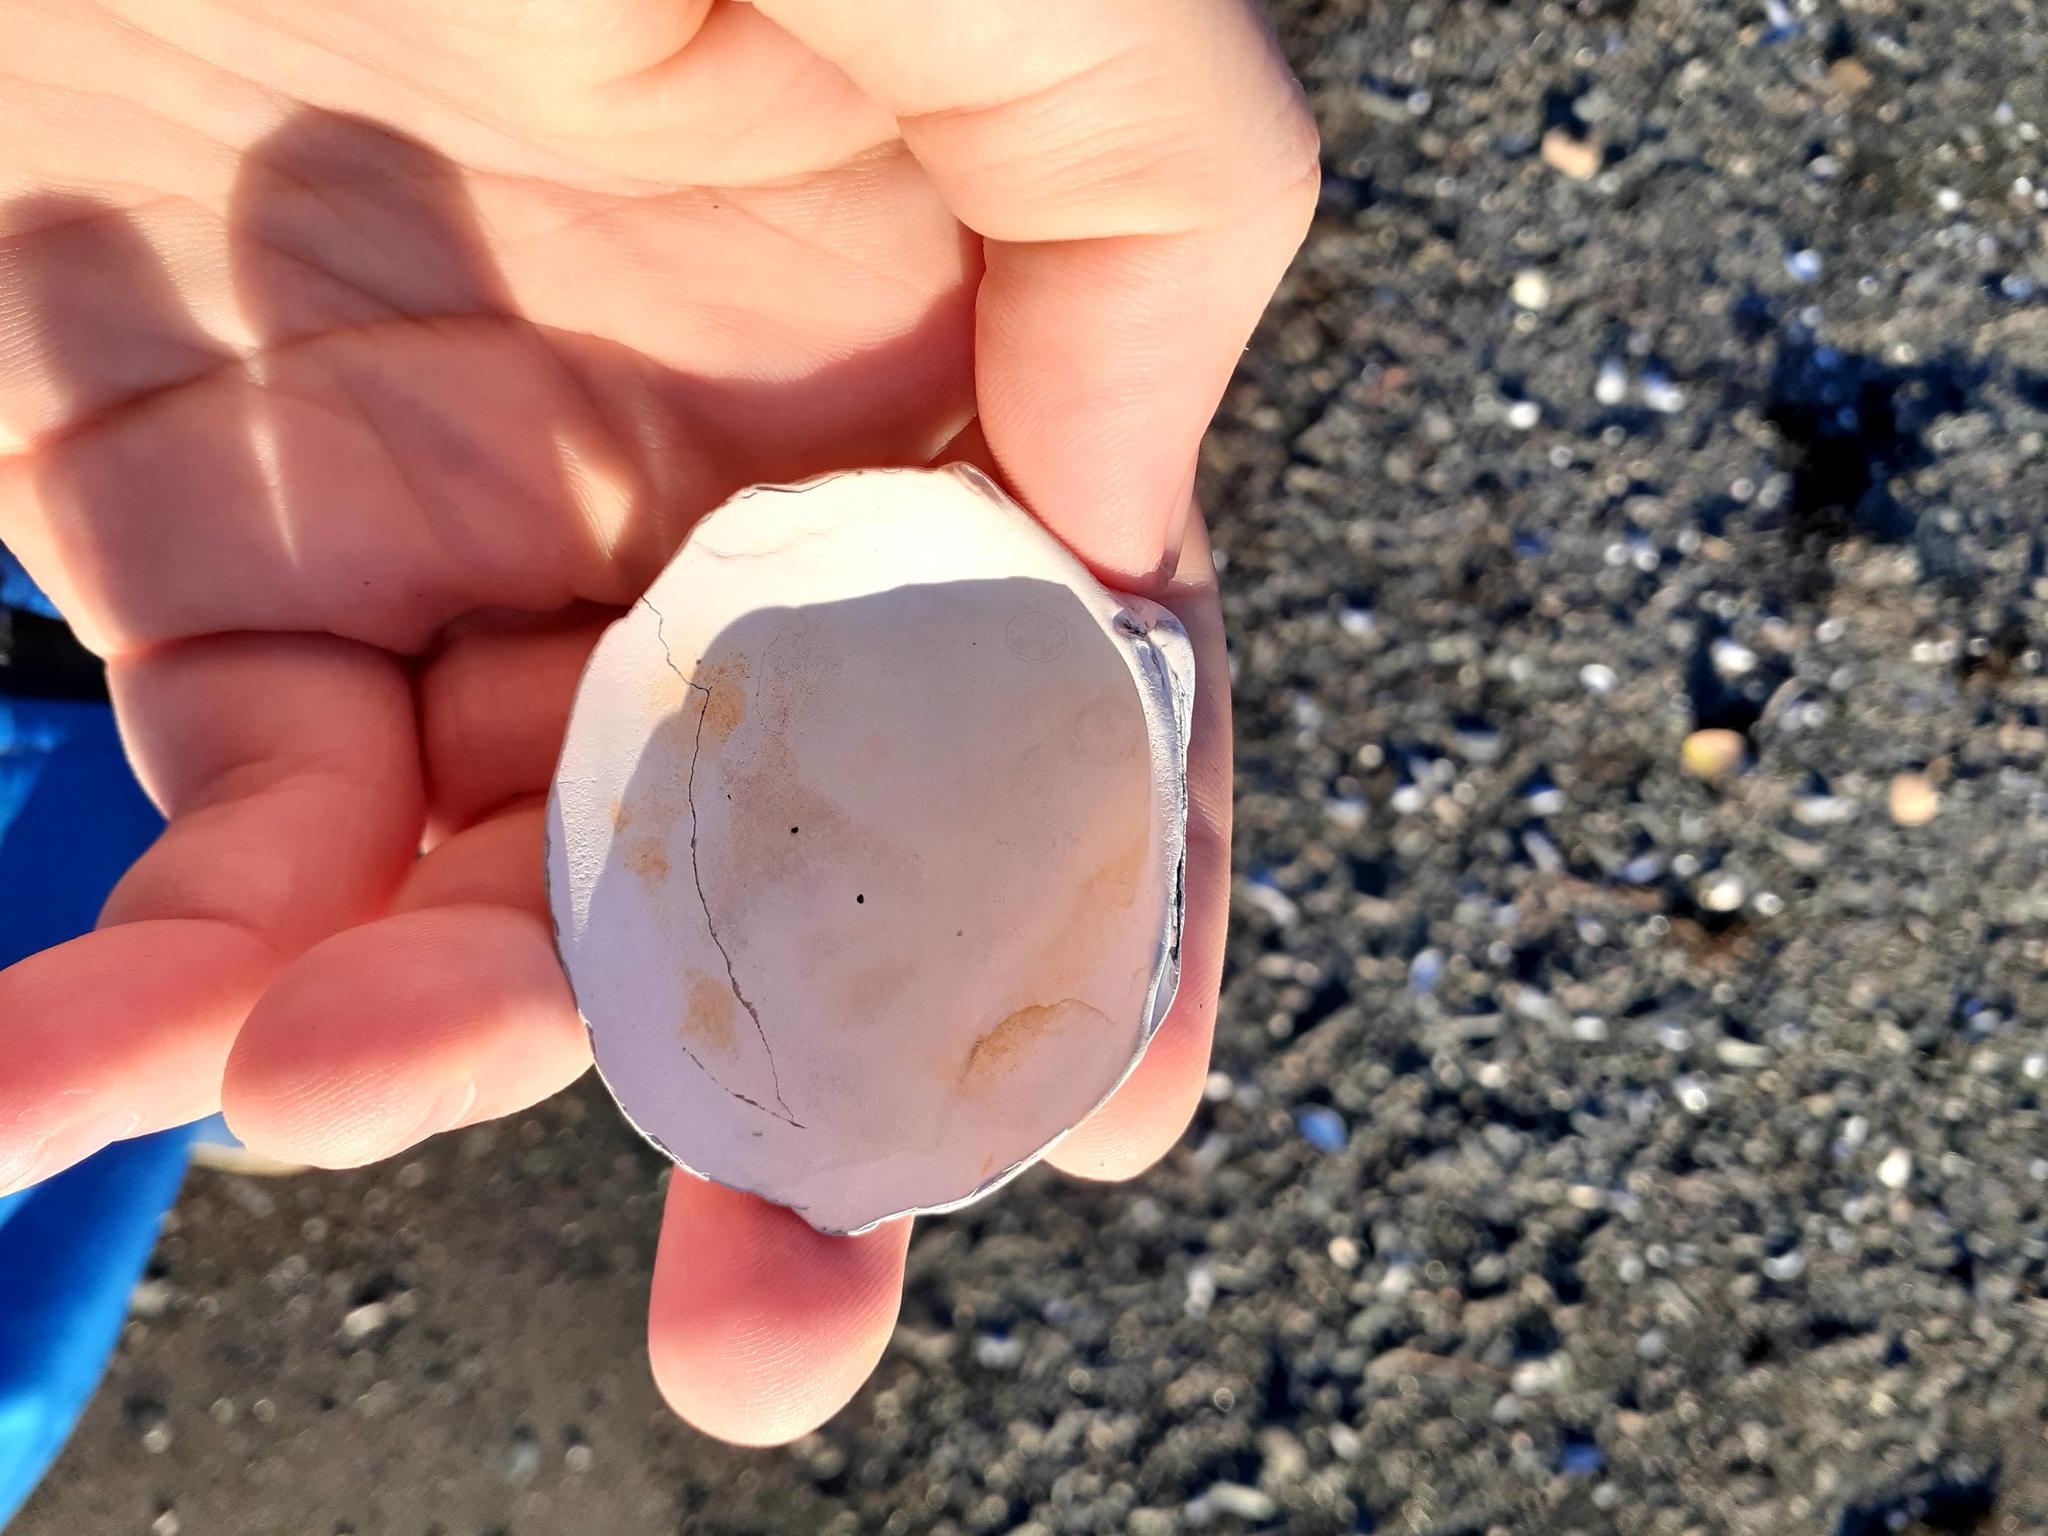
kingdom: Animalia
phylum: Mollusca
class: Bivalvia
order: Cardiida
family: Cardiidae
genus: Serripes
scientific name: Serripes groenlandicus
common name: Greenland cockle
